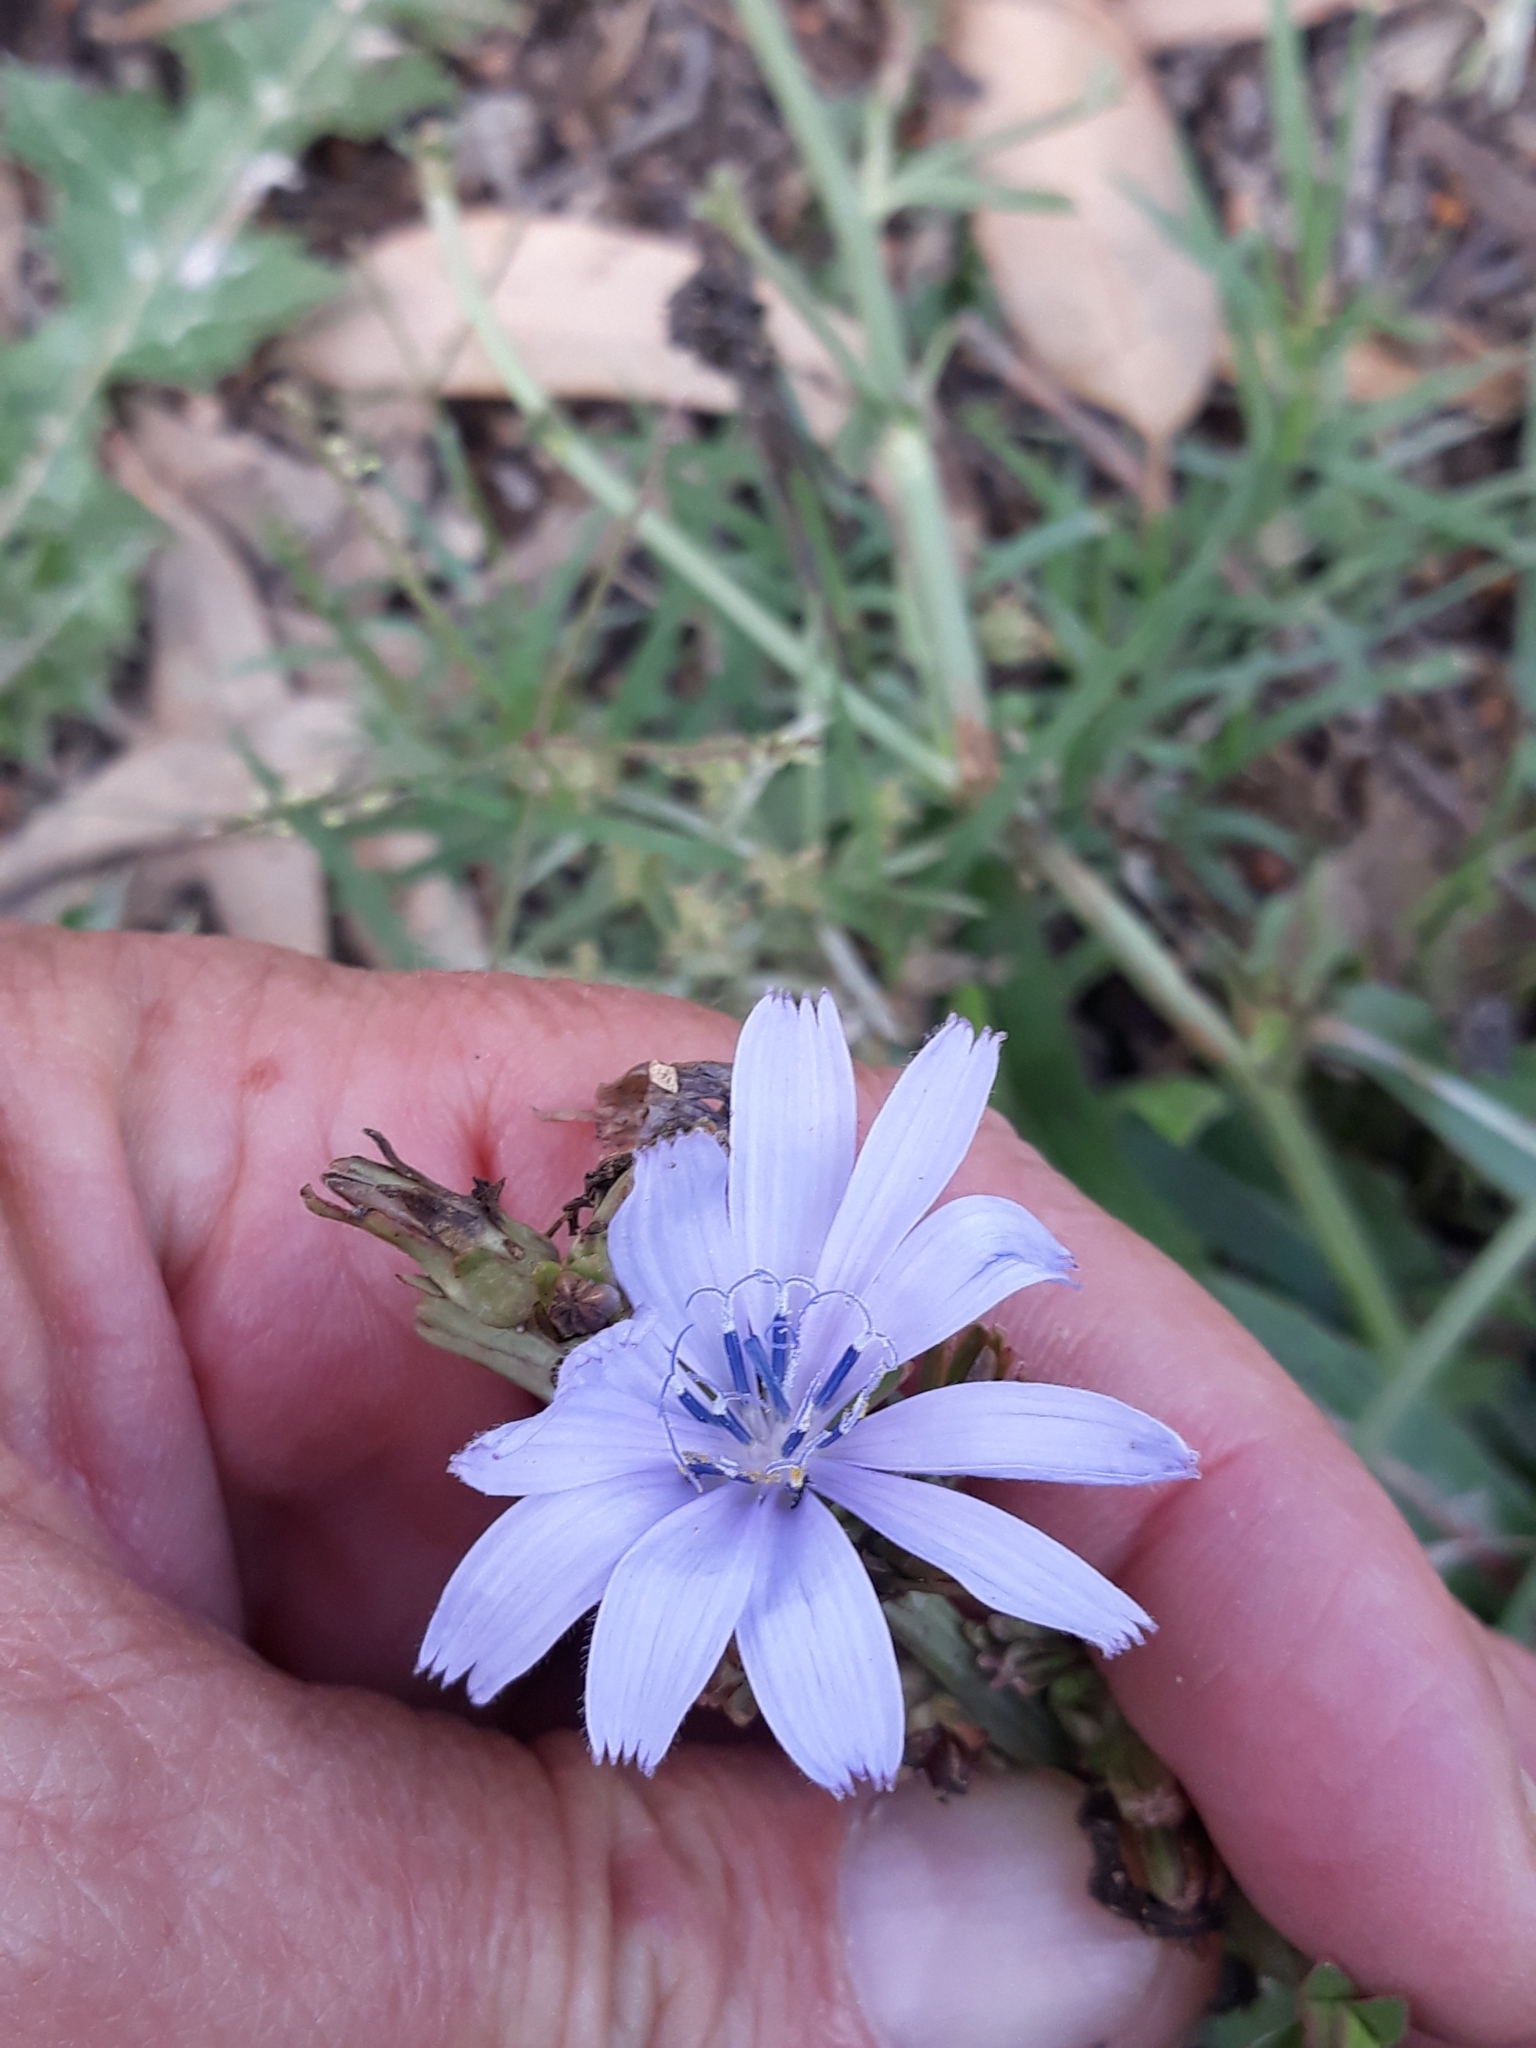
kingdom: Plantae
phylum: Tracheophyta
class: Magnoliopsida
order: Asterales
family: Asteraceae
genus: Cichorium
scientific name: Cichorium intybus
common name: Chicory
